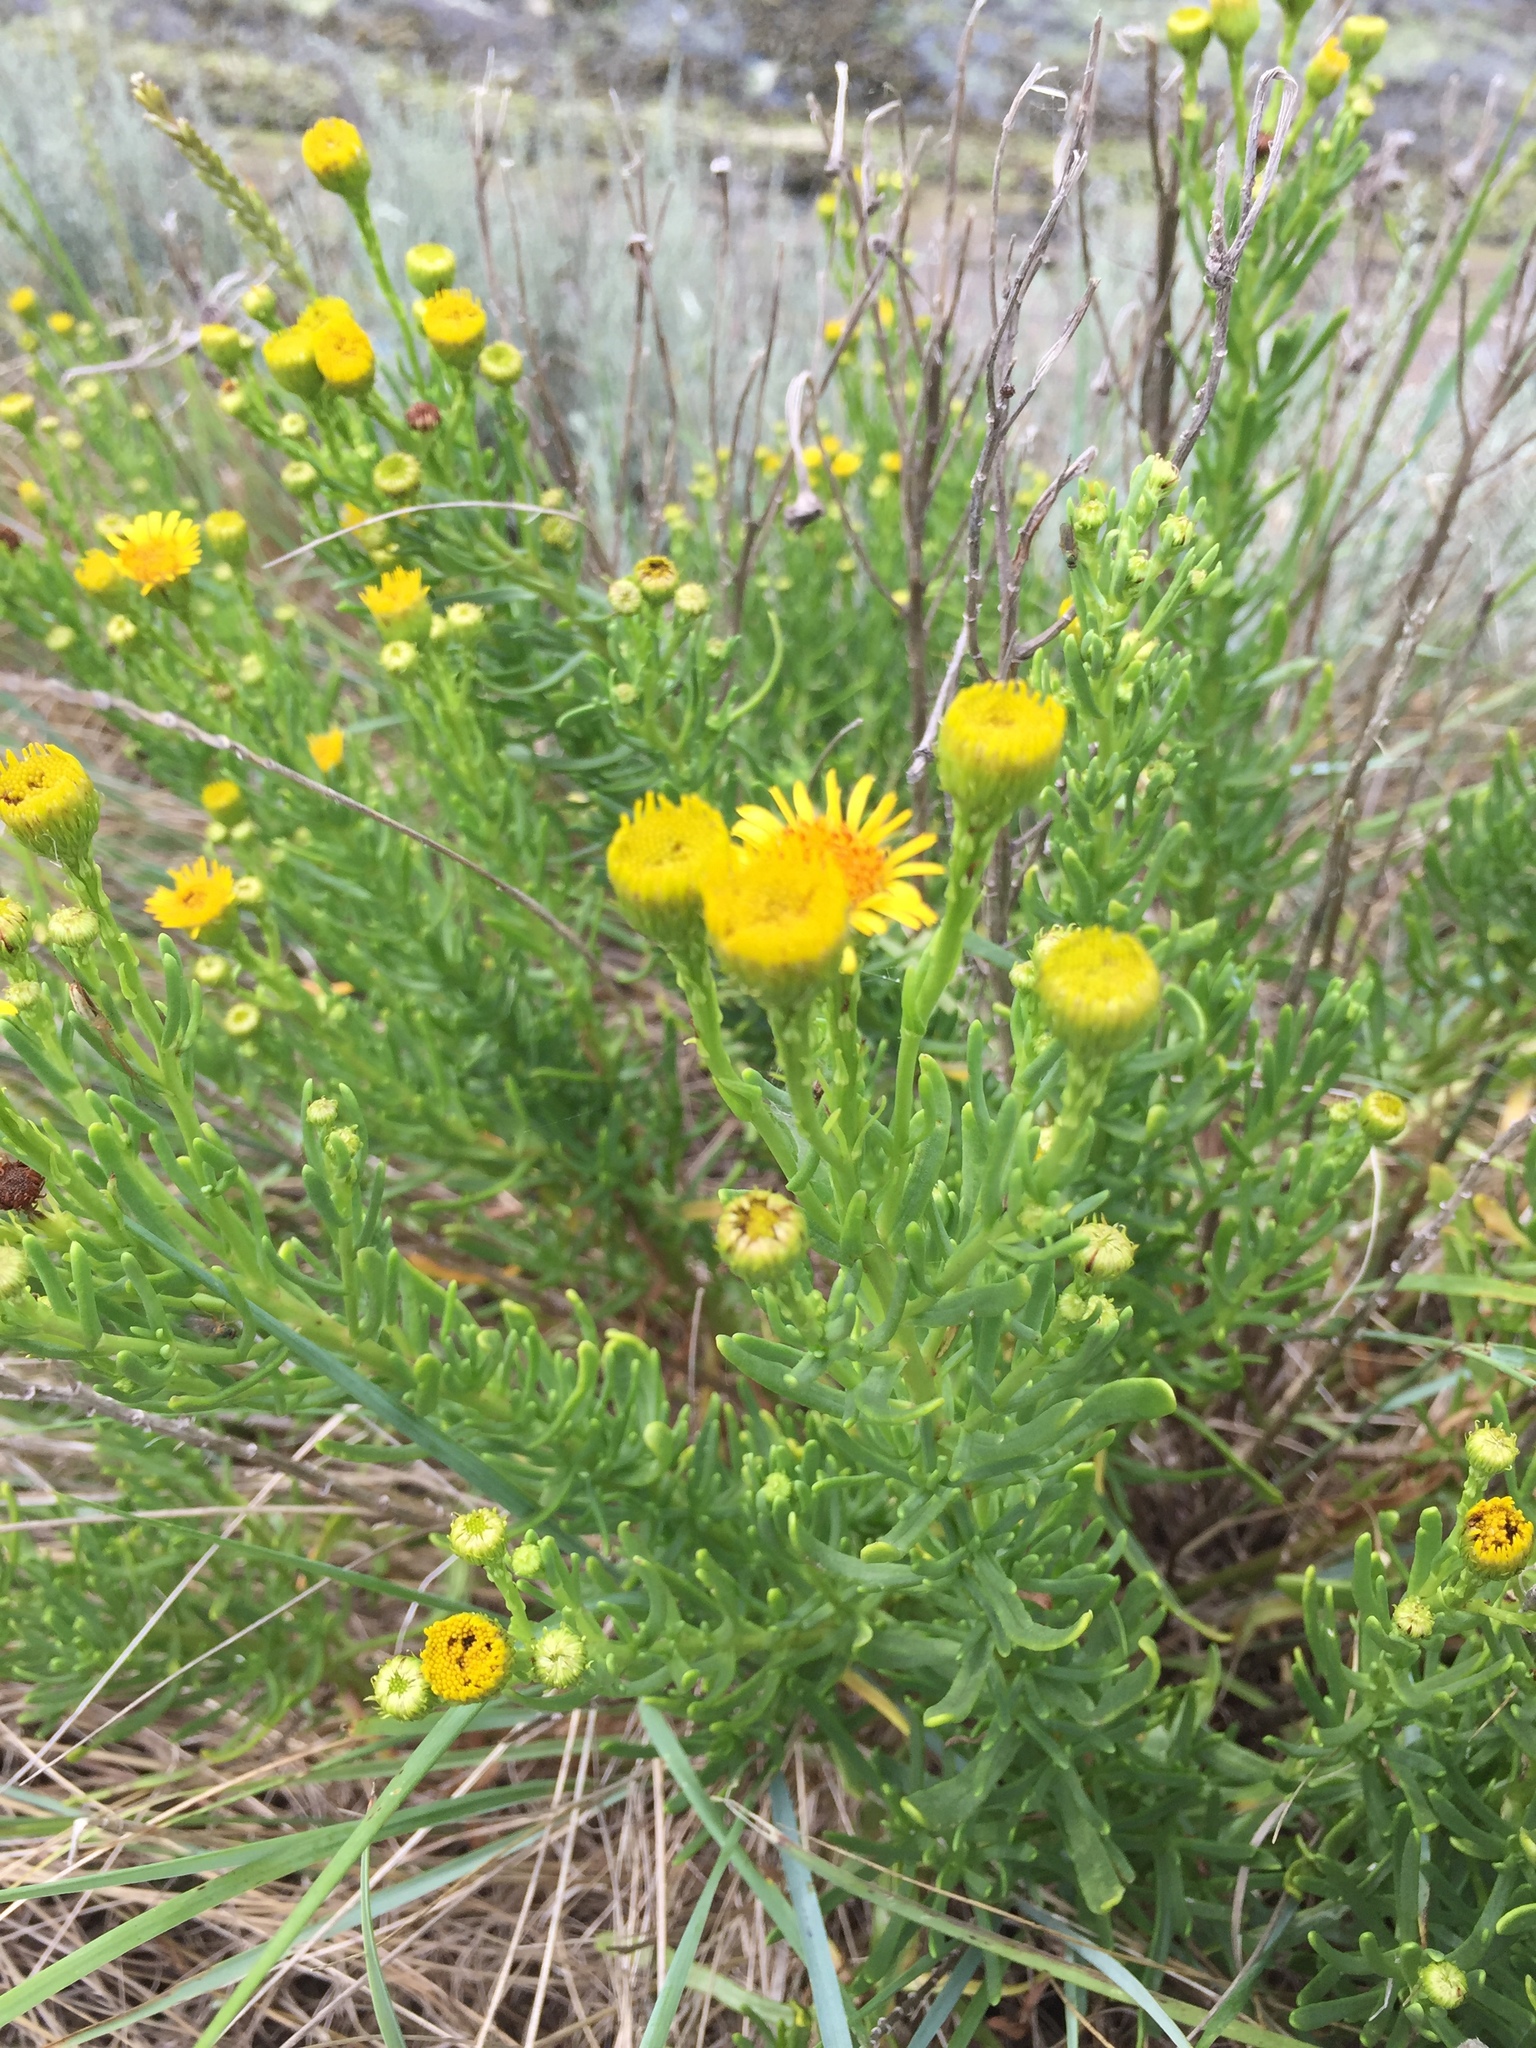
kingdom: Plantae
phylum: Tracheophyta
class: Magnoliopsida
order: Asterales
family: Asteraceae
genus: Limbarda
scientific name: Limbarda crithmoides
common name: Golden samphire
